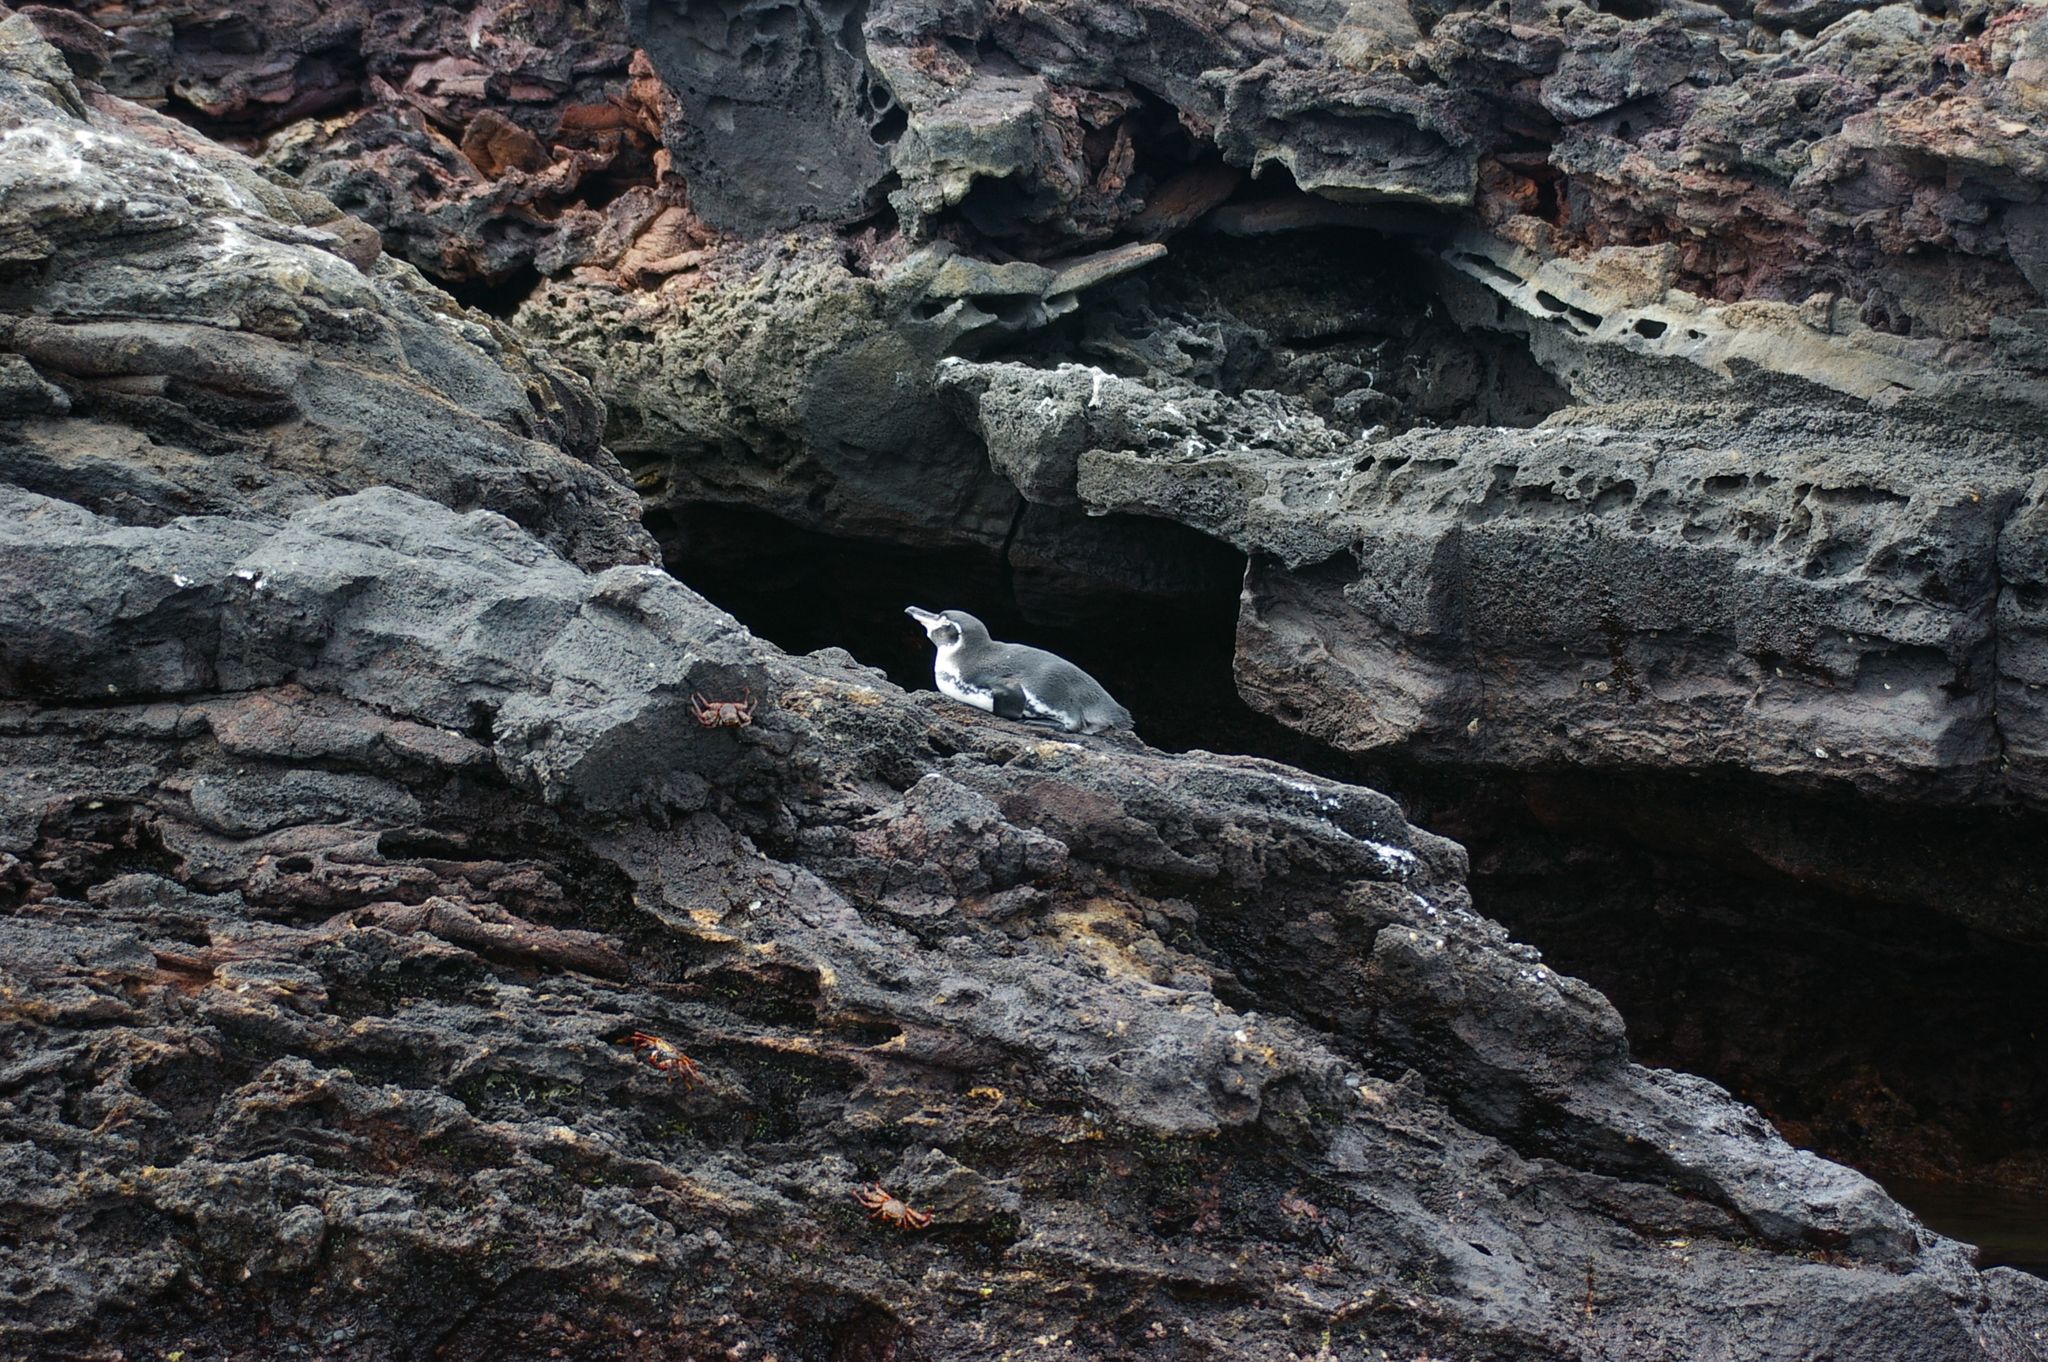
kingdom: Animalia
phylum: Chordata
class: Aves
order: Sphenisciformes
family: Spheniscidae
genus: Spheniscus
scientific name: Spheniscus mendiculus
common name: Galapagos penguin
